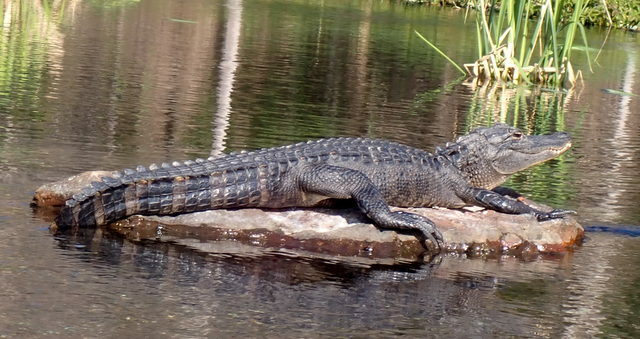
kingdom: Animalia
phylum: Chordata
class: Crocodylia
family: Alligatoridae
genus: Alligator
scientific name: Alligator mississippiensis
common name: American alligator
